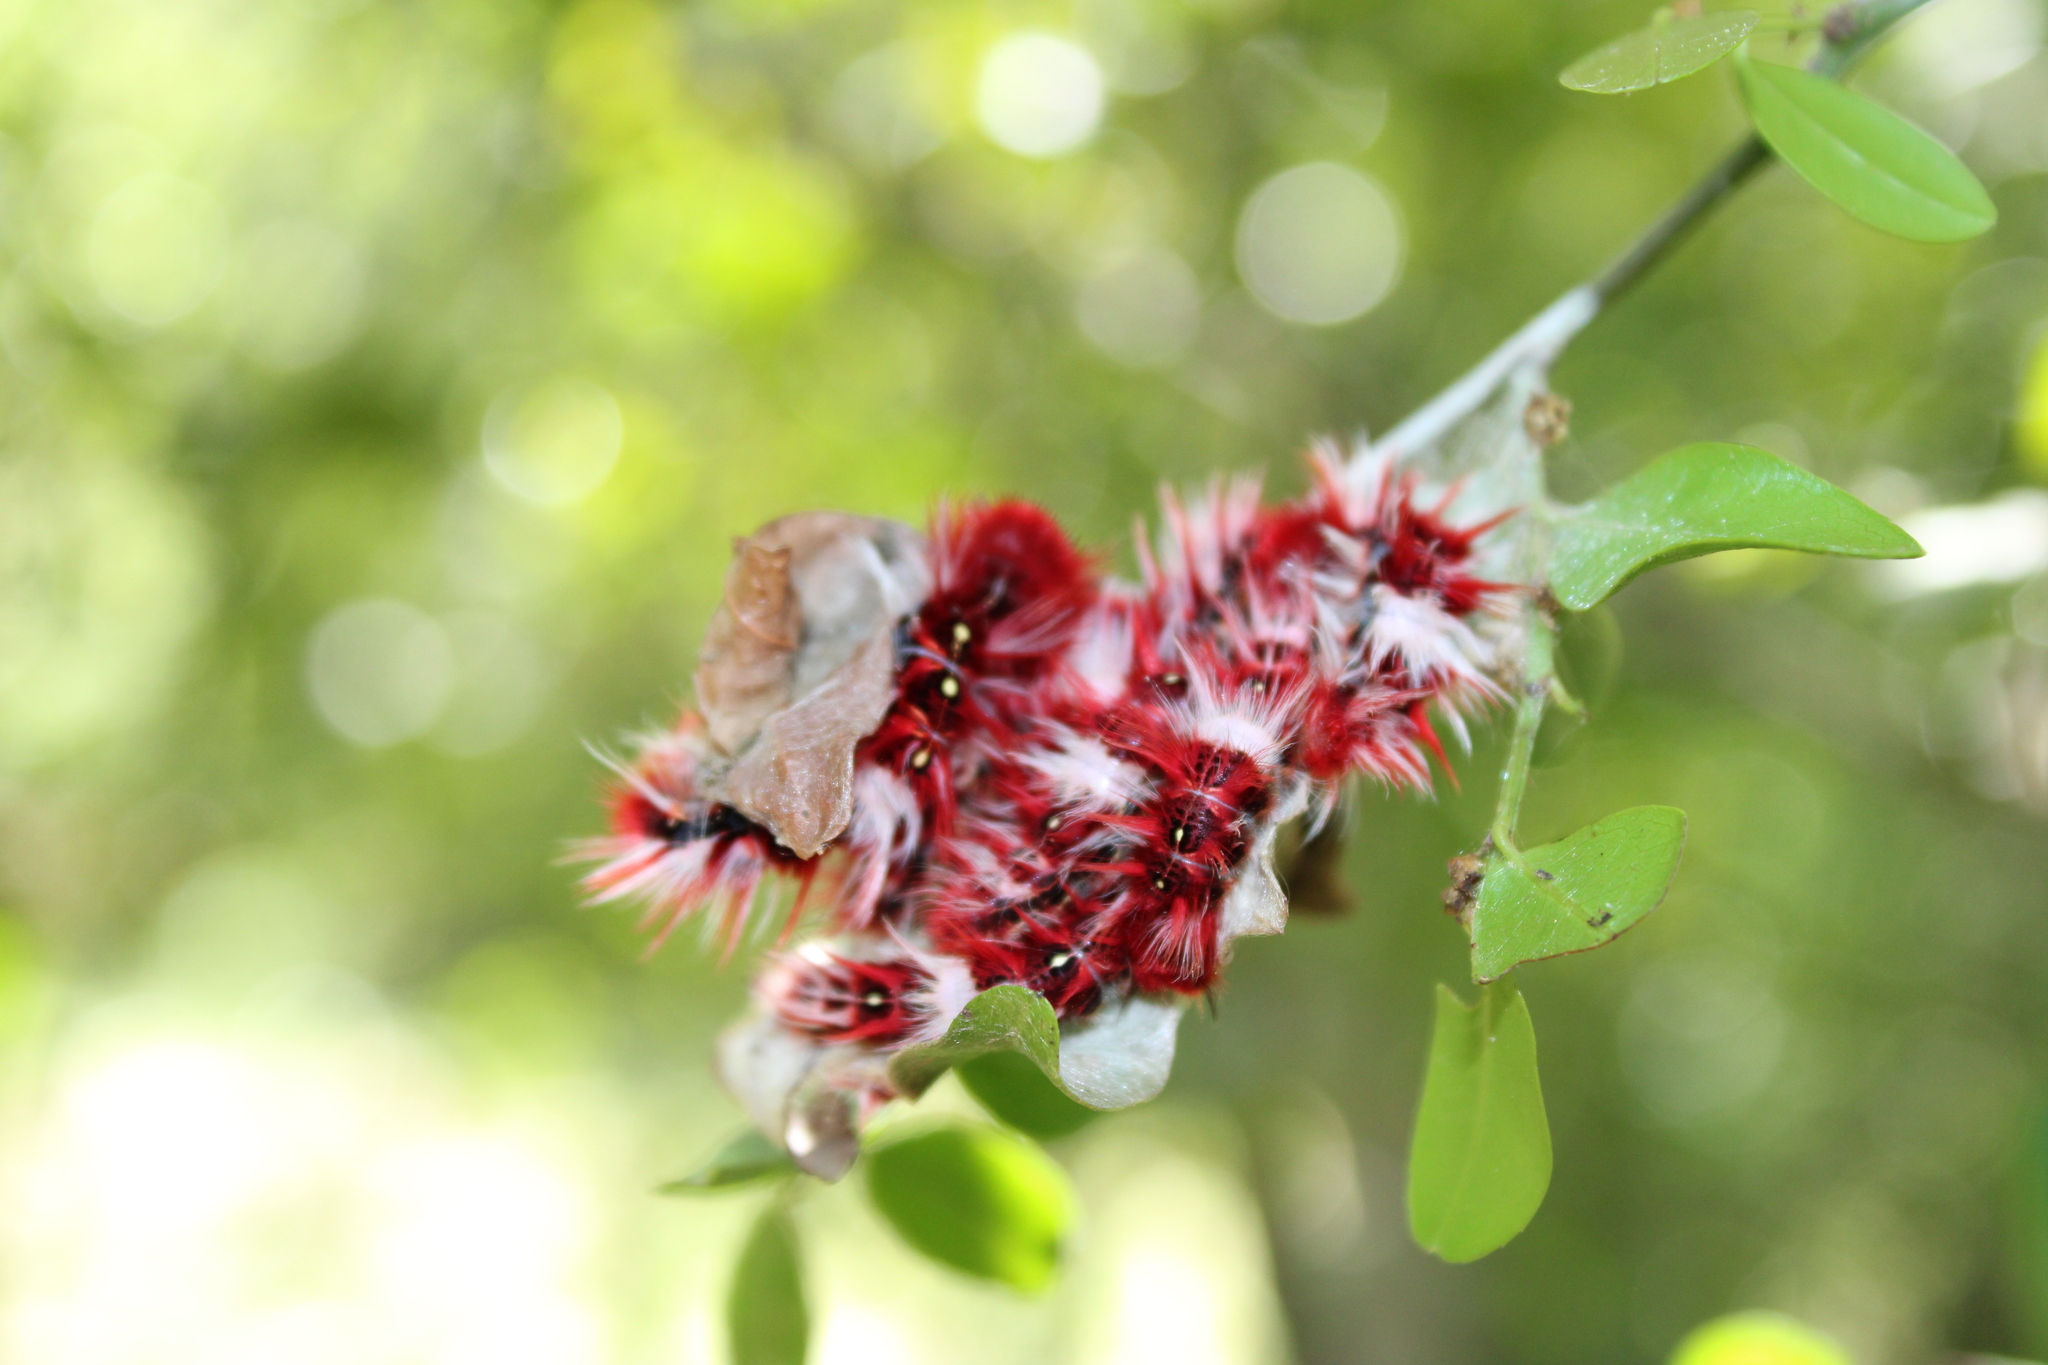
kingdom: Animalia
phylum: Arthropoda
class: Insecta
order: Lepidoptera
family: Nymphalidae
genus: Morpho
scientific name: Morpho epistrophus
